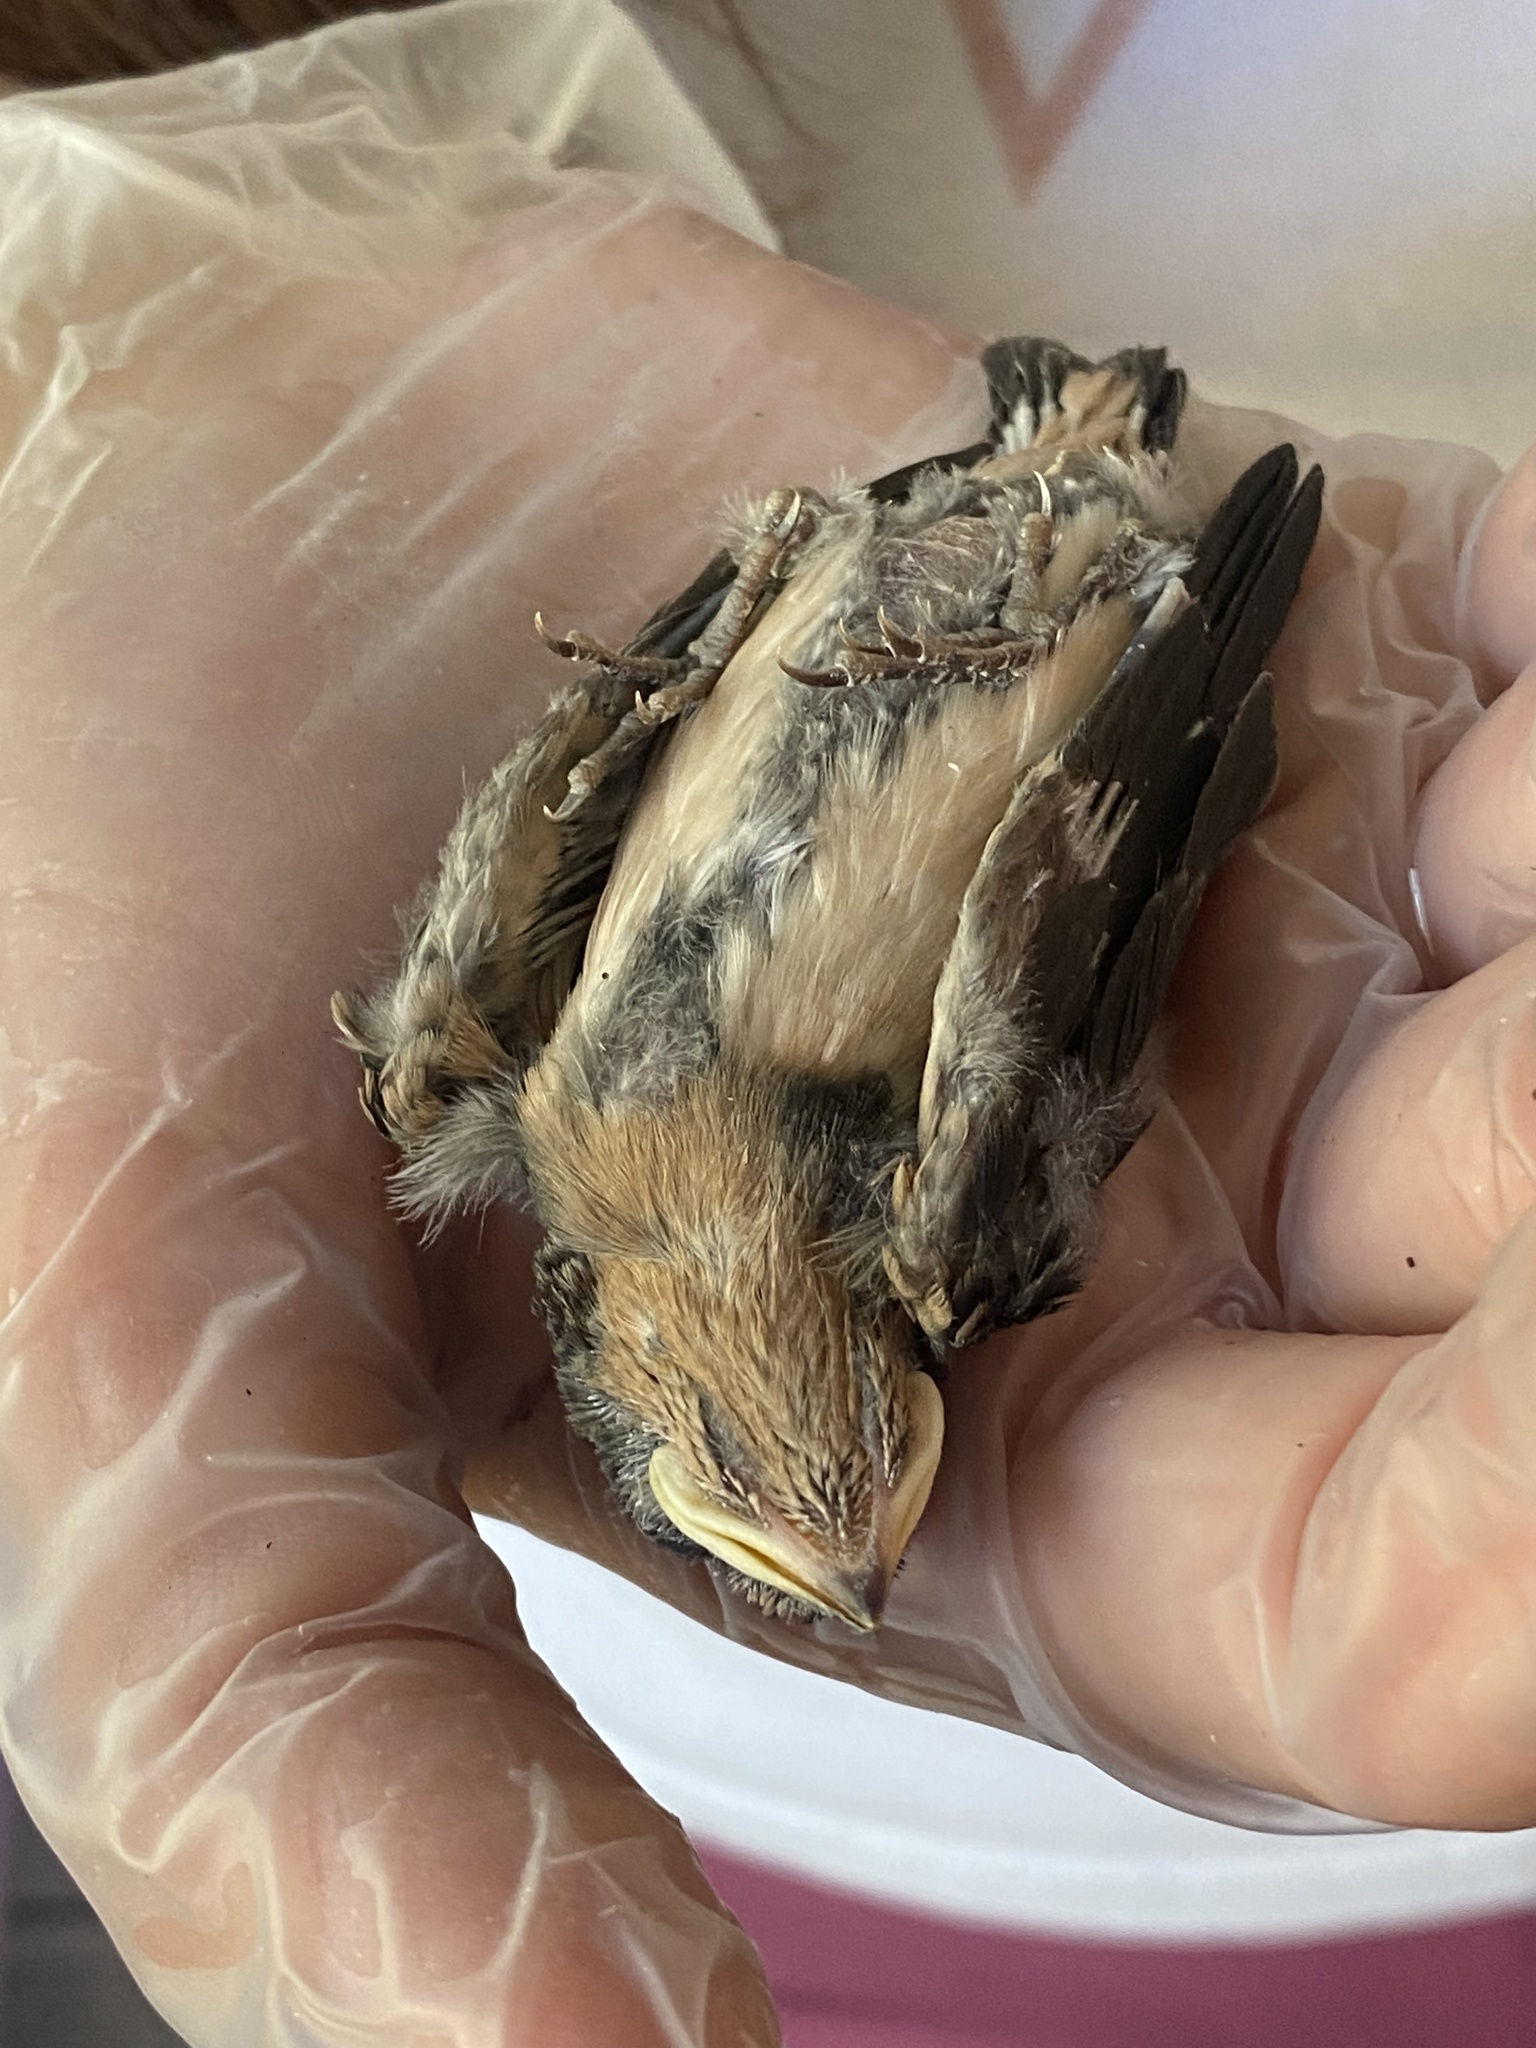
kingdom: Animalia
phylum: Chordata
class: Aves
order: Passeriformes
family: Hirundinidae
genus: Hirundo
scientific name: Hirundo rustica
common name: Barn swallow
